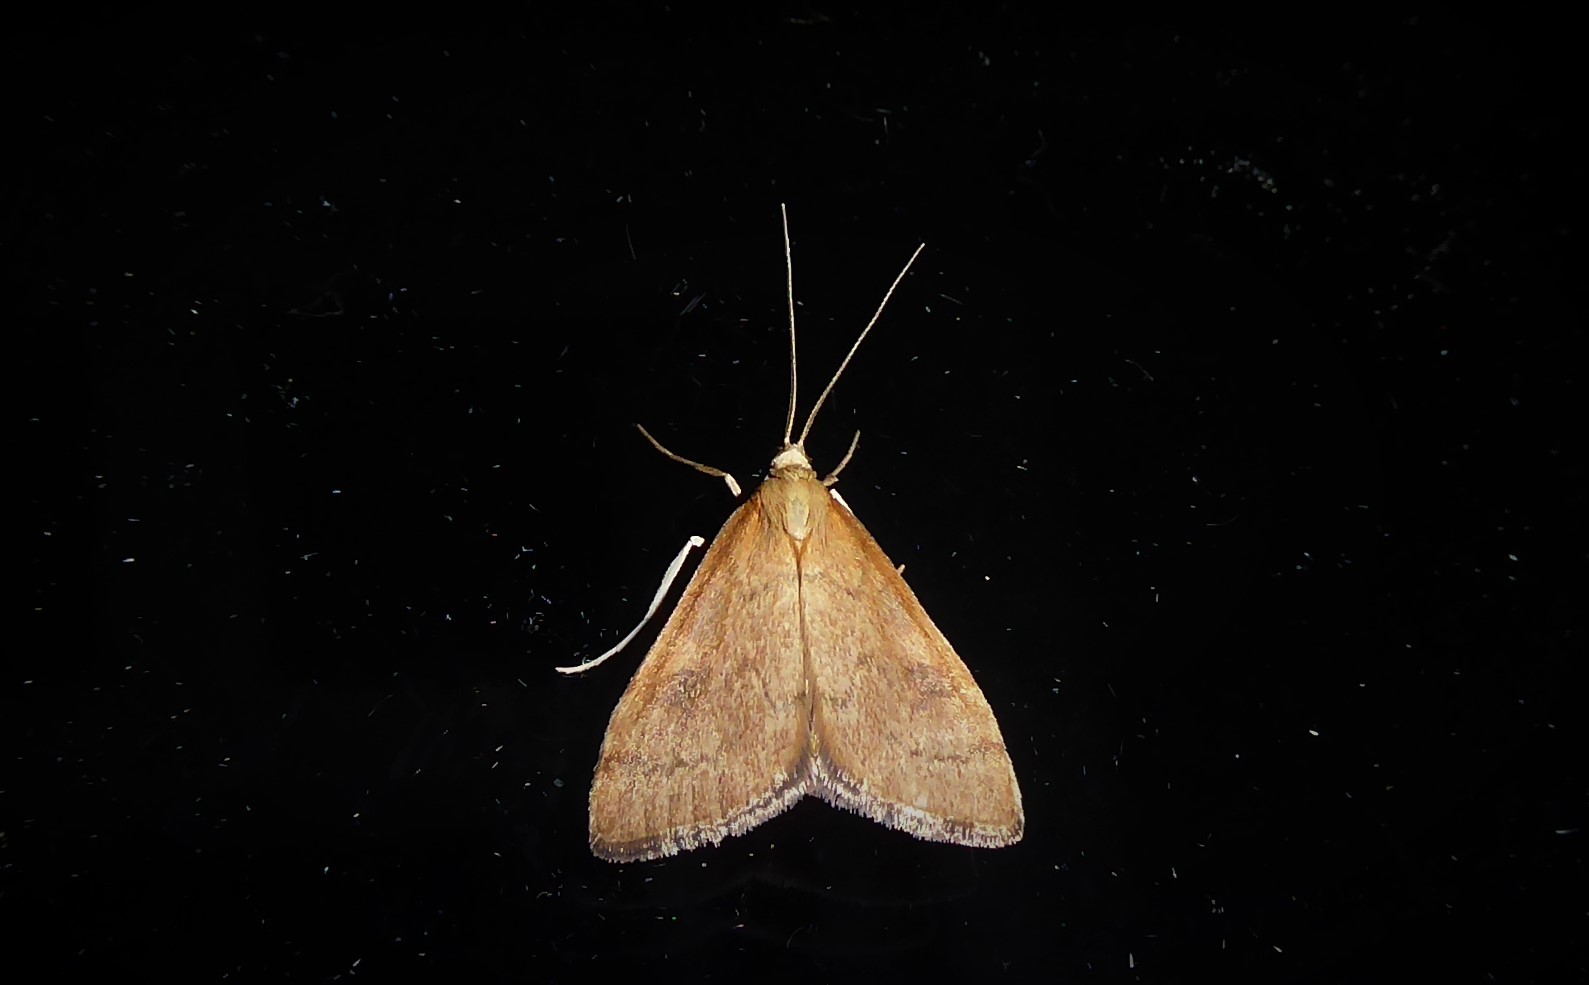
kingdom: Animalia
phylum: Arthropoda
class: Insecta
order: Lepidoptera
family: Crambidae
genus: Udea
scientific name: Udea Mnesictena flavidalis
